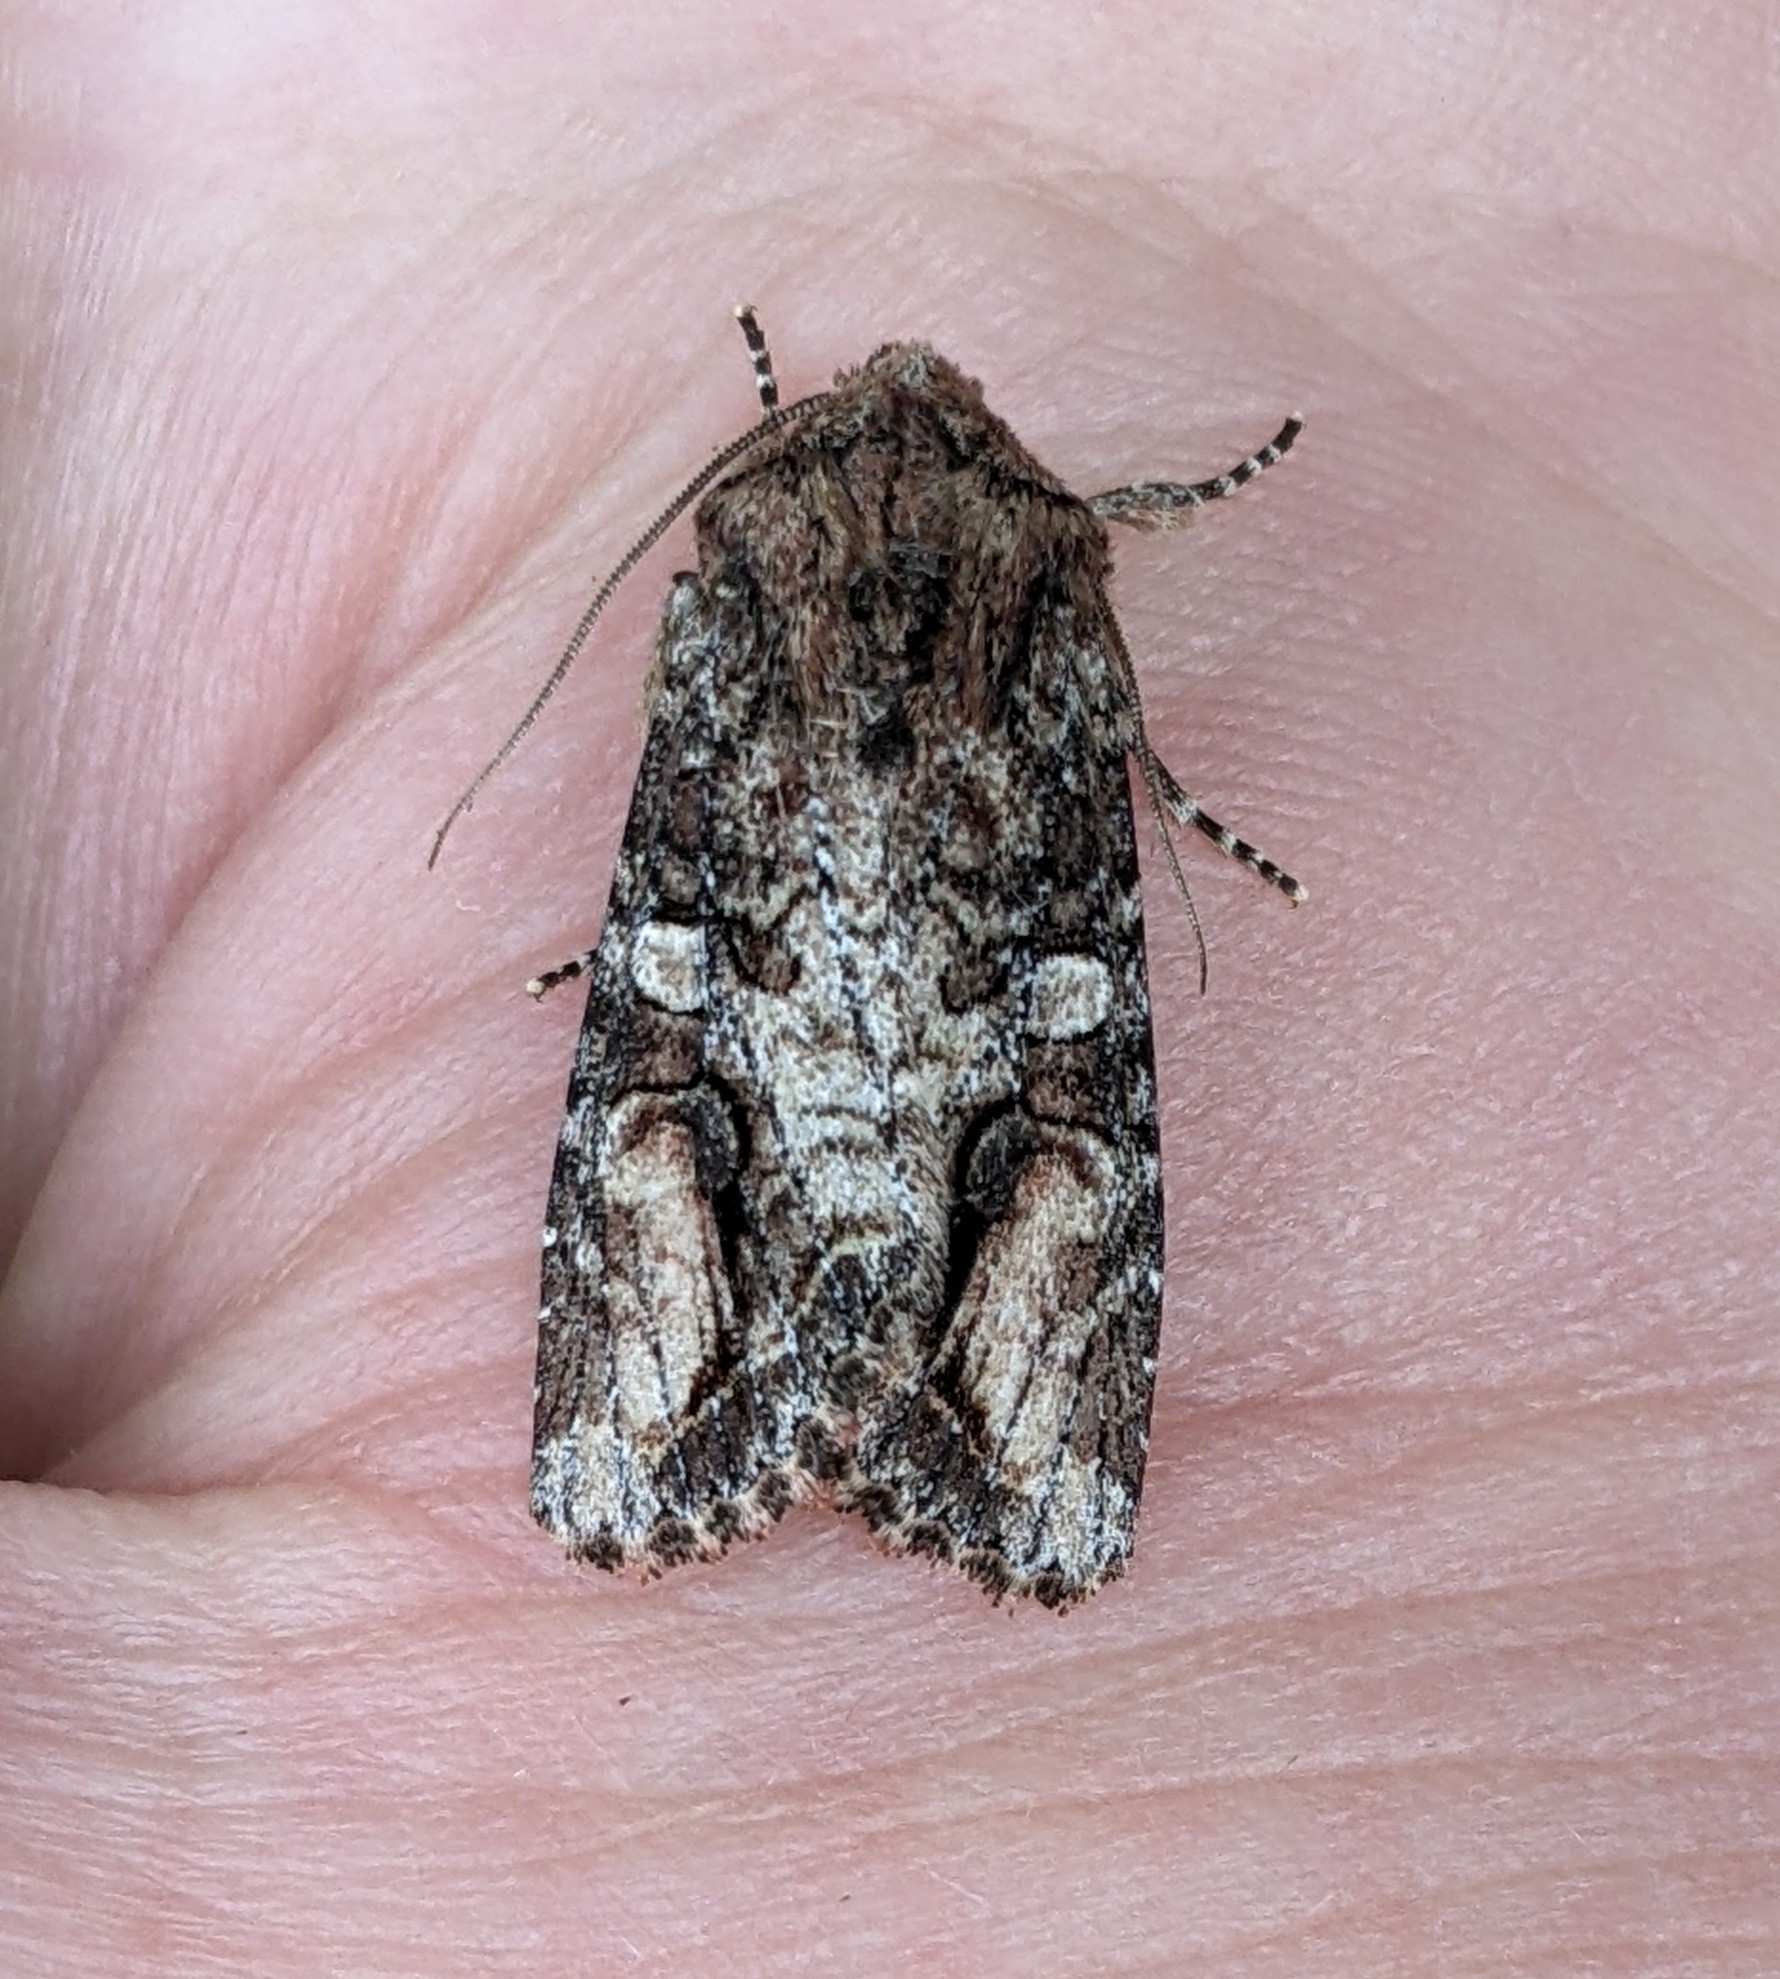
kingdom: Animalia
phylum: Arthropoda
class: Insecta
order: Lepidoptera
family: Noctuidae
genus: Egira
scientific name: Egira perlubens
